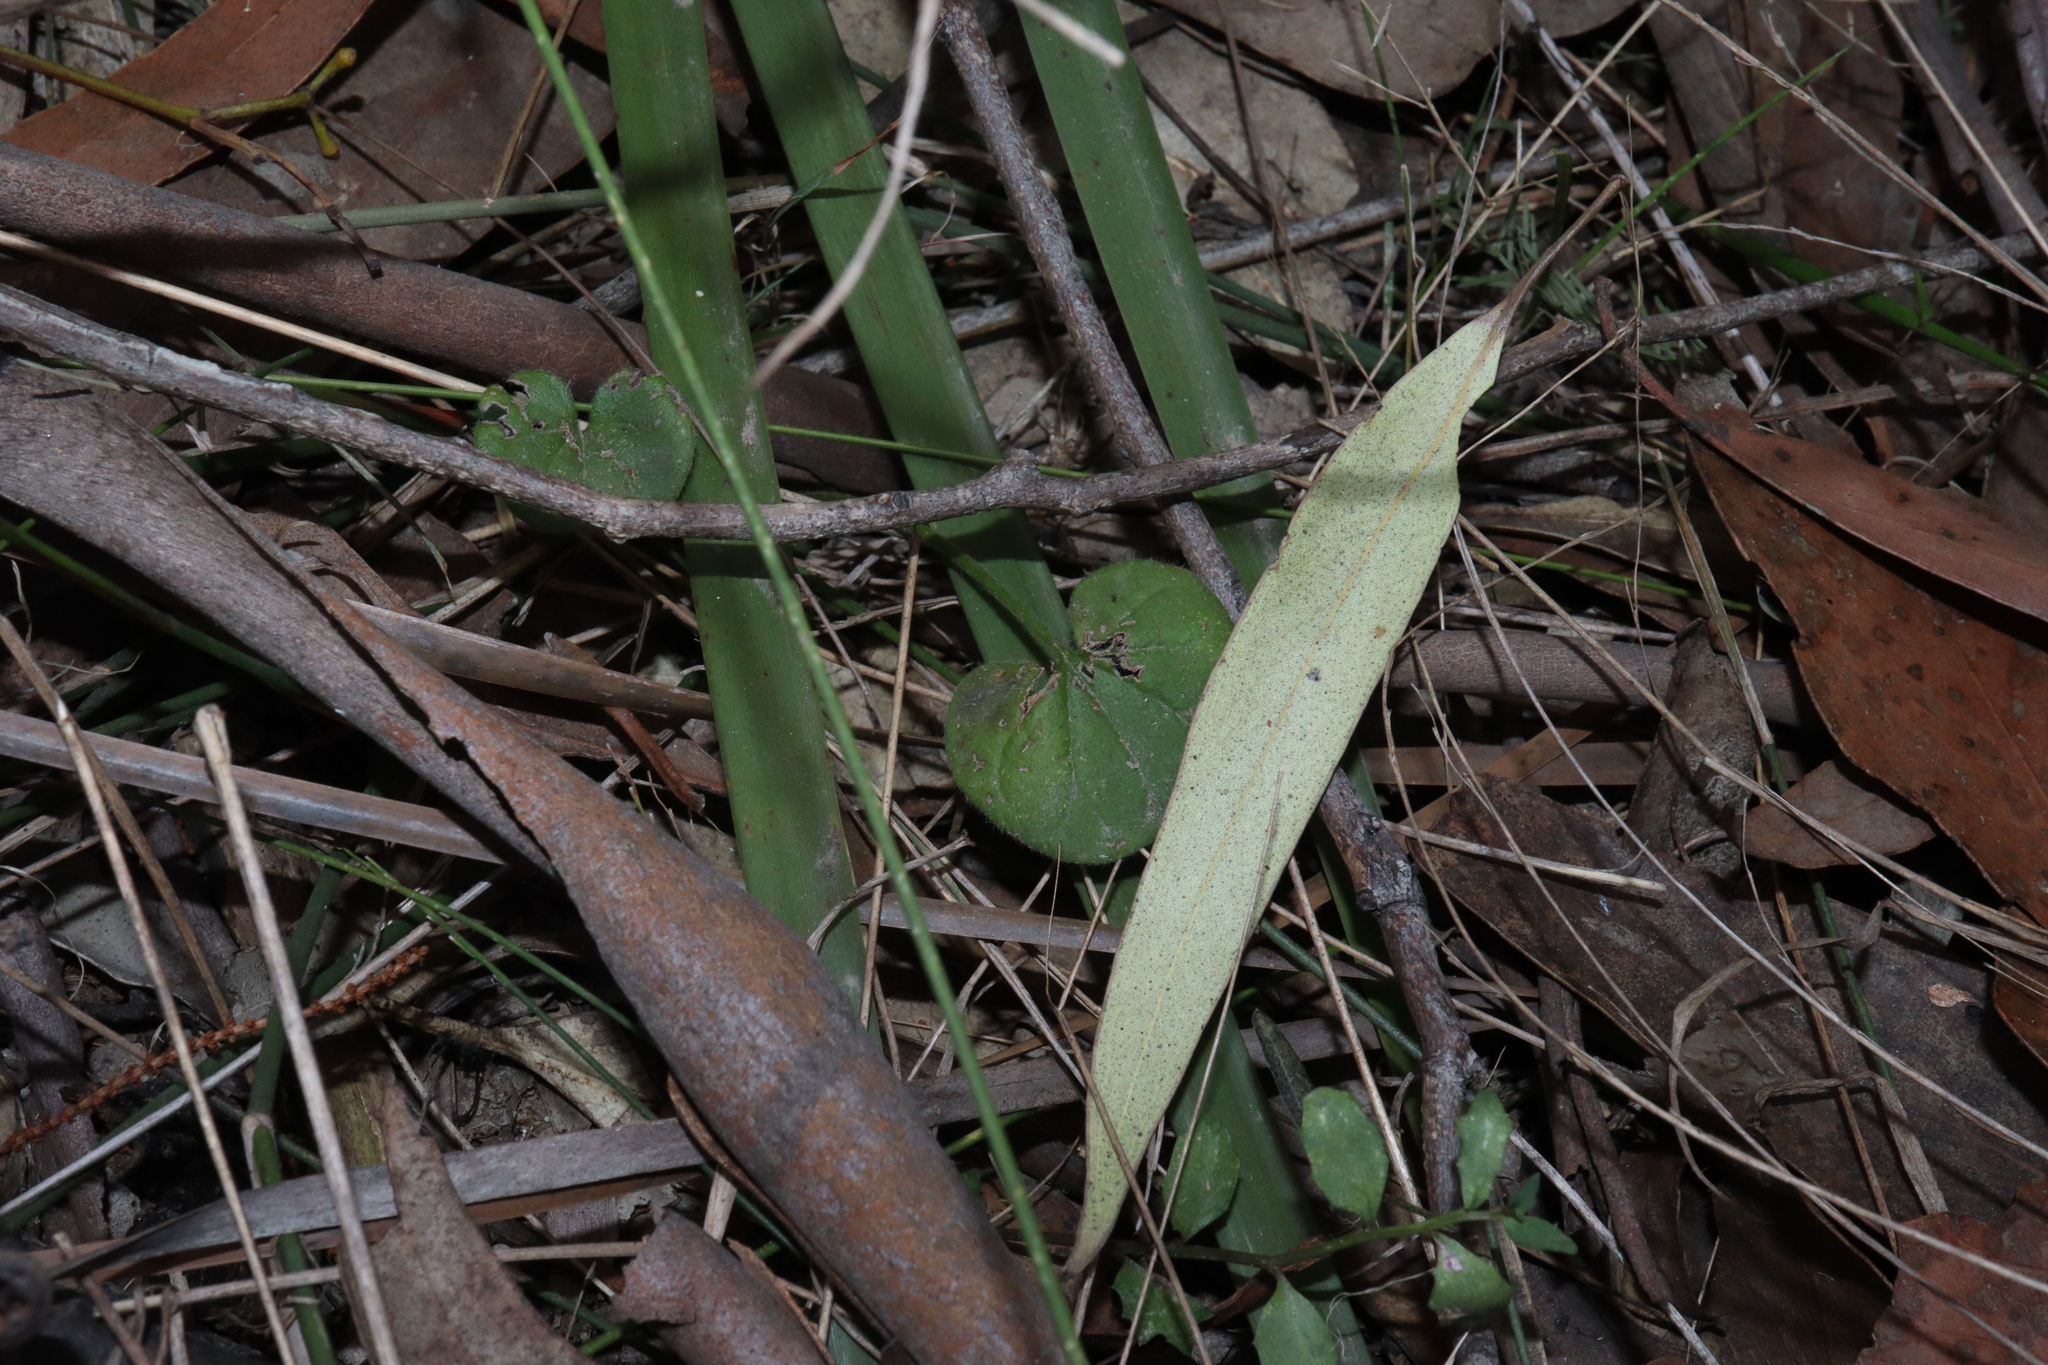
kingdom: Plantae
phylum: Tracheophyta
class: Magnoliopsida
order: Solanales
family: Convolvulaceae
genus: Dichondra
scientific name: Dichondra repens
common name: Kidneyweed
